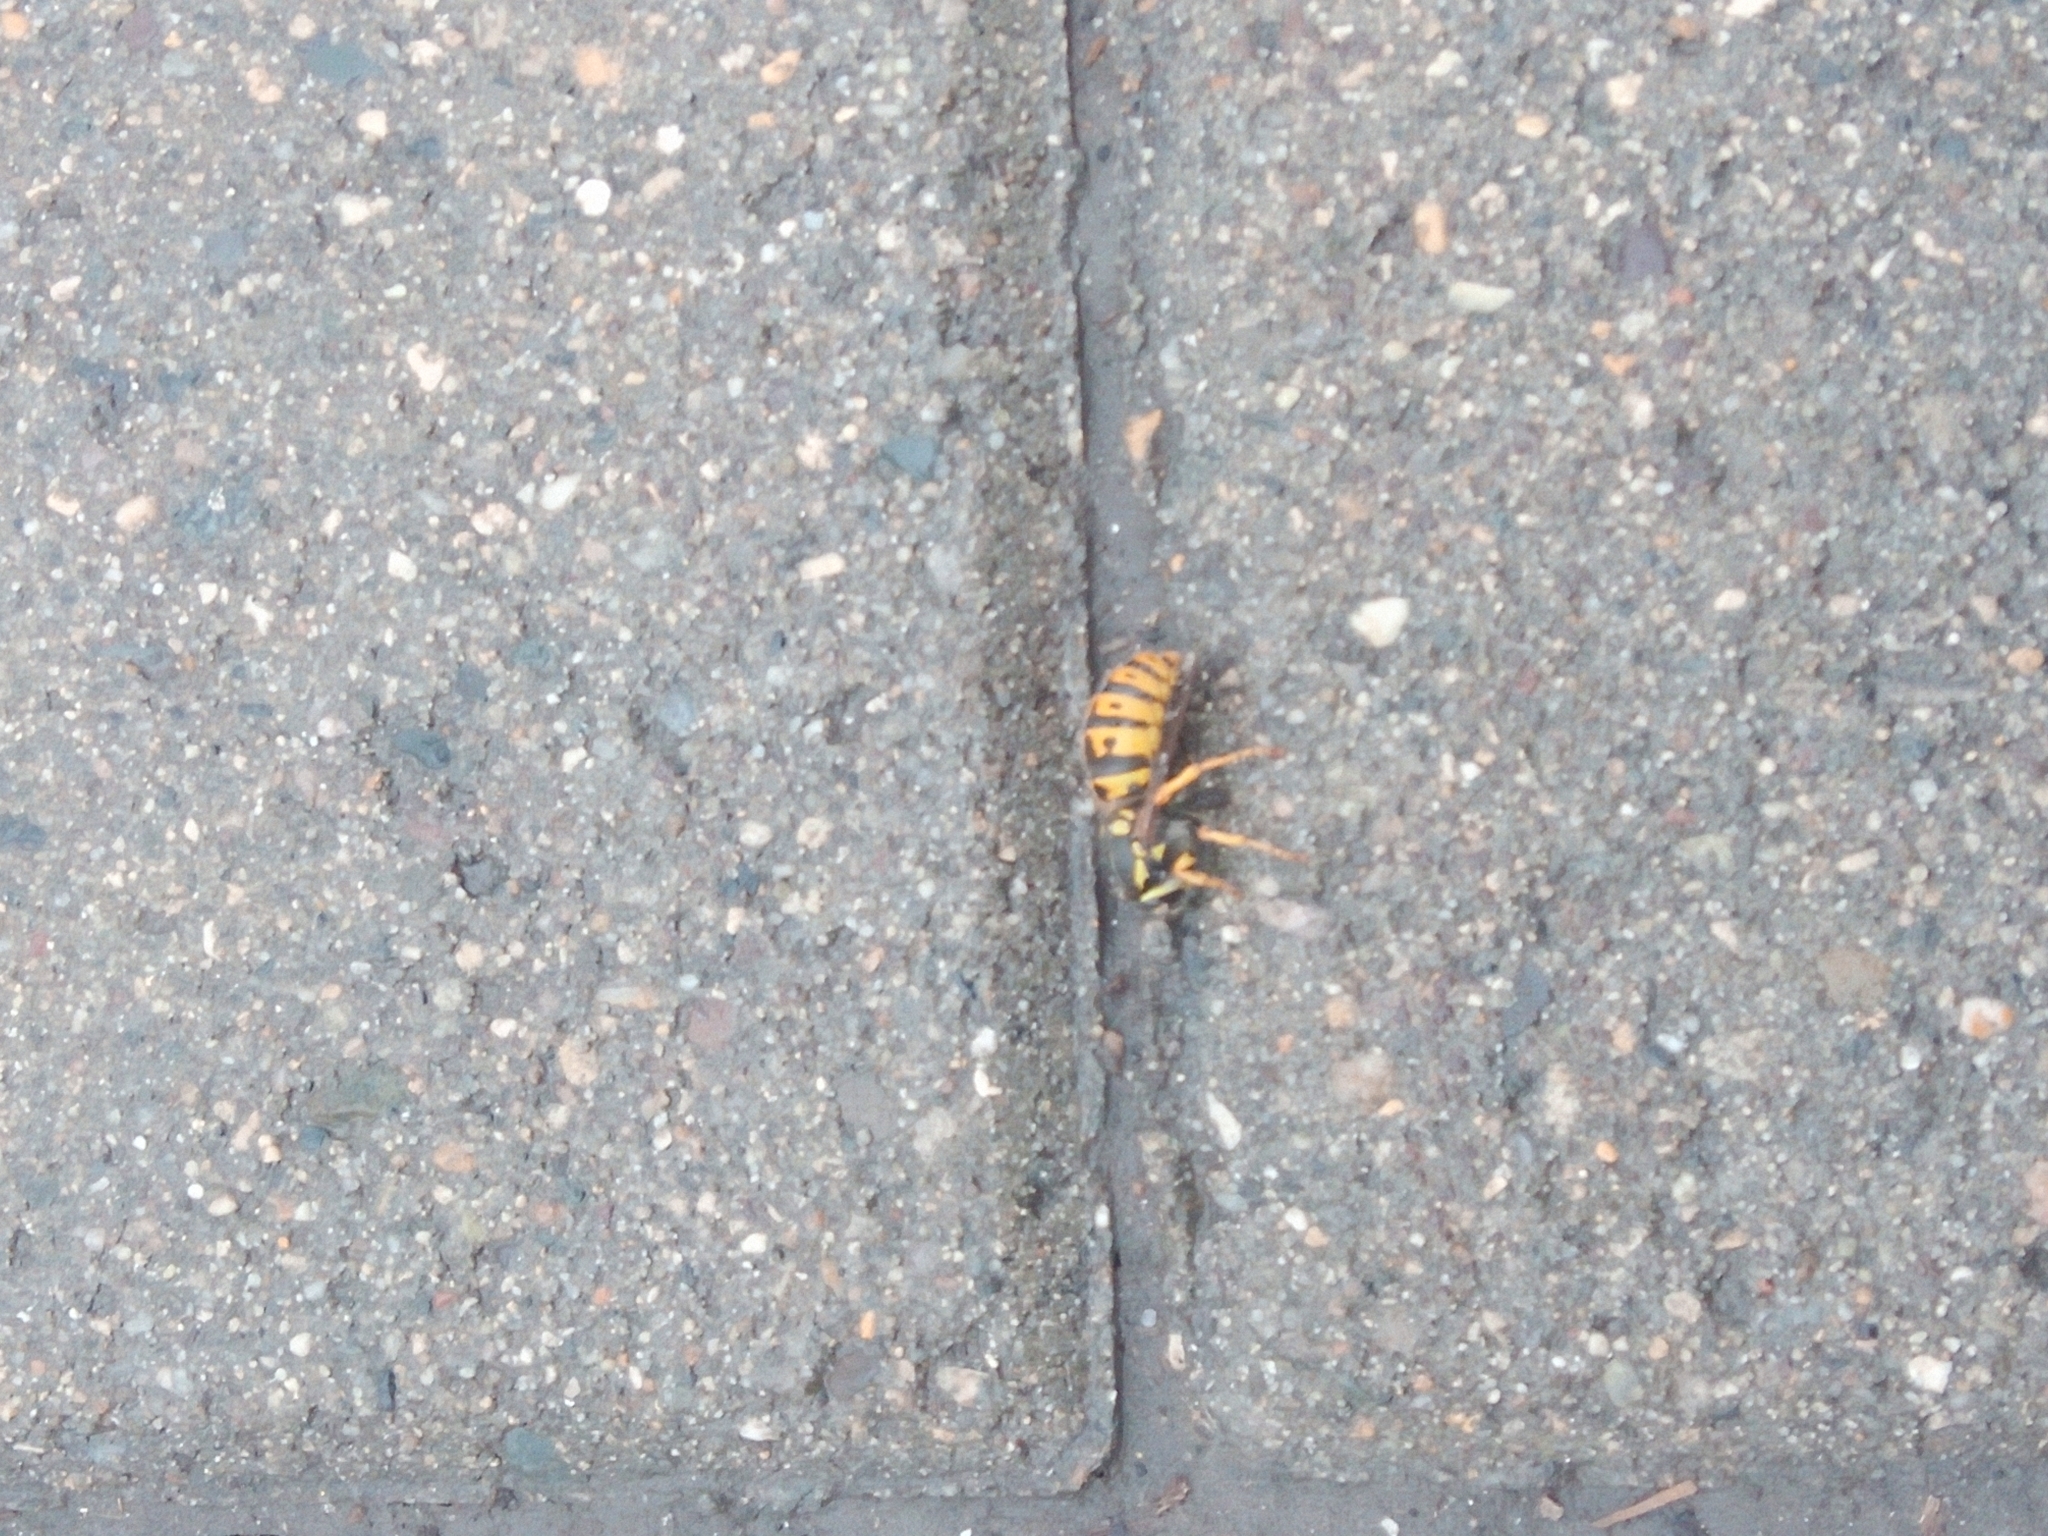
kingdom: Animalia
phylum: Arthropoda
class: Insecta
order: Hymenoptera
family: Vespidae
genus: Vespula
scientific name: Vespula germanica
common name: German wasp
